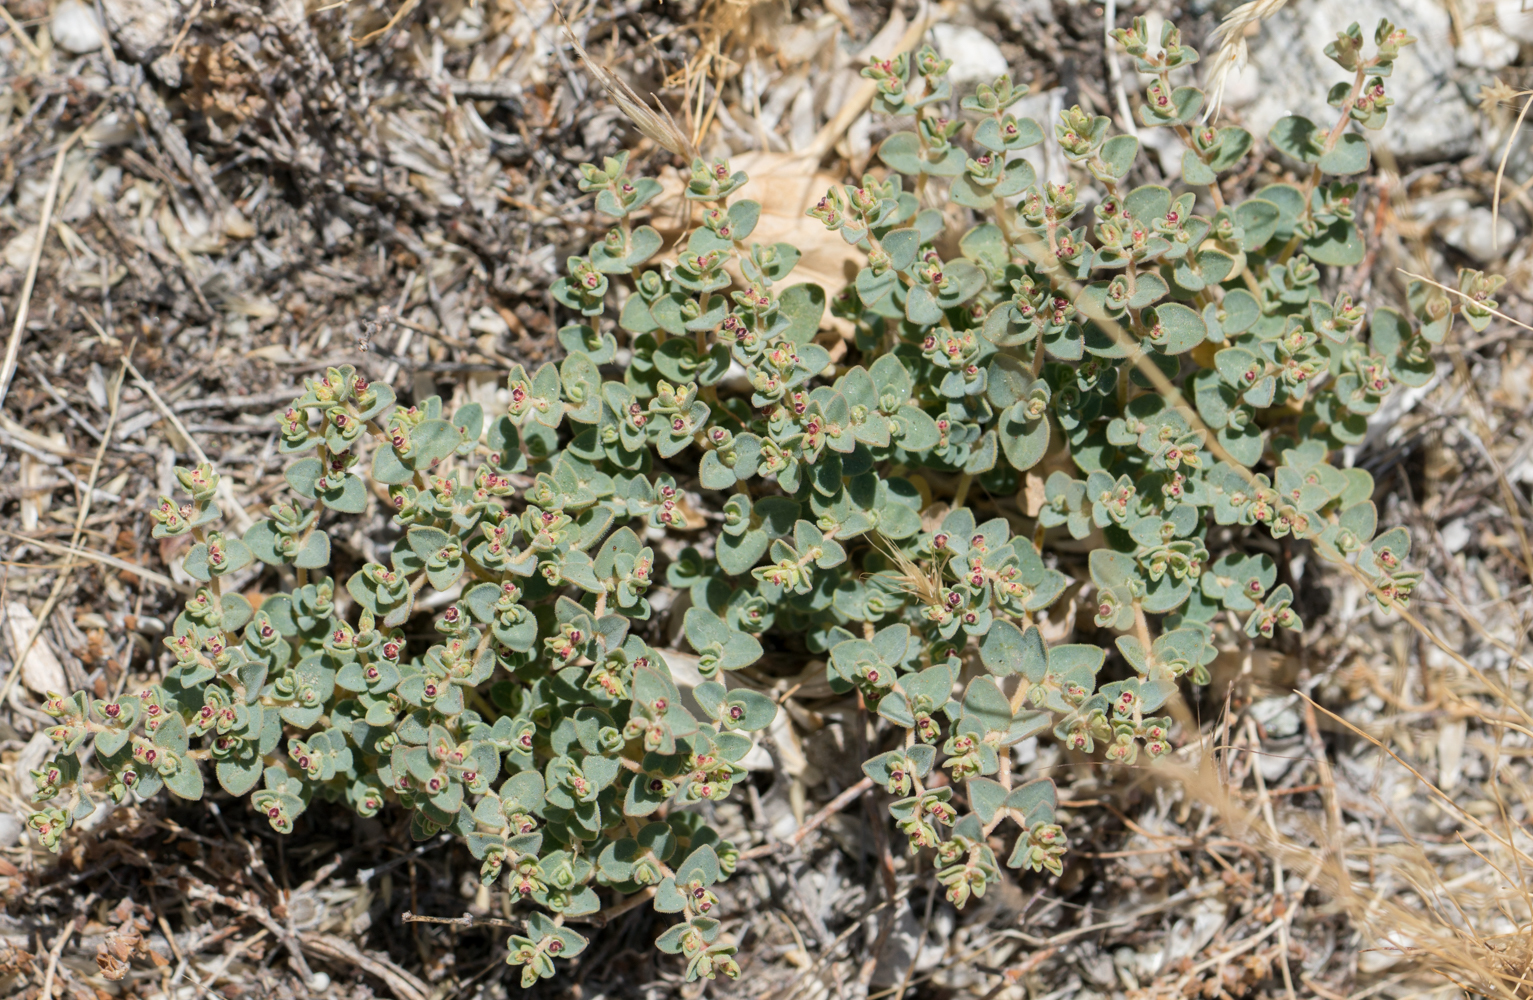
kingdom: Plantae
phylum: Tracheophyta
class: Magnoliopsida
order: Malpighiales
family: Euphorbiaceae
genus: Euphorbia
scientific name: Euphorbia polycarpa
